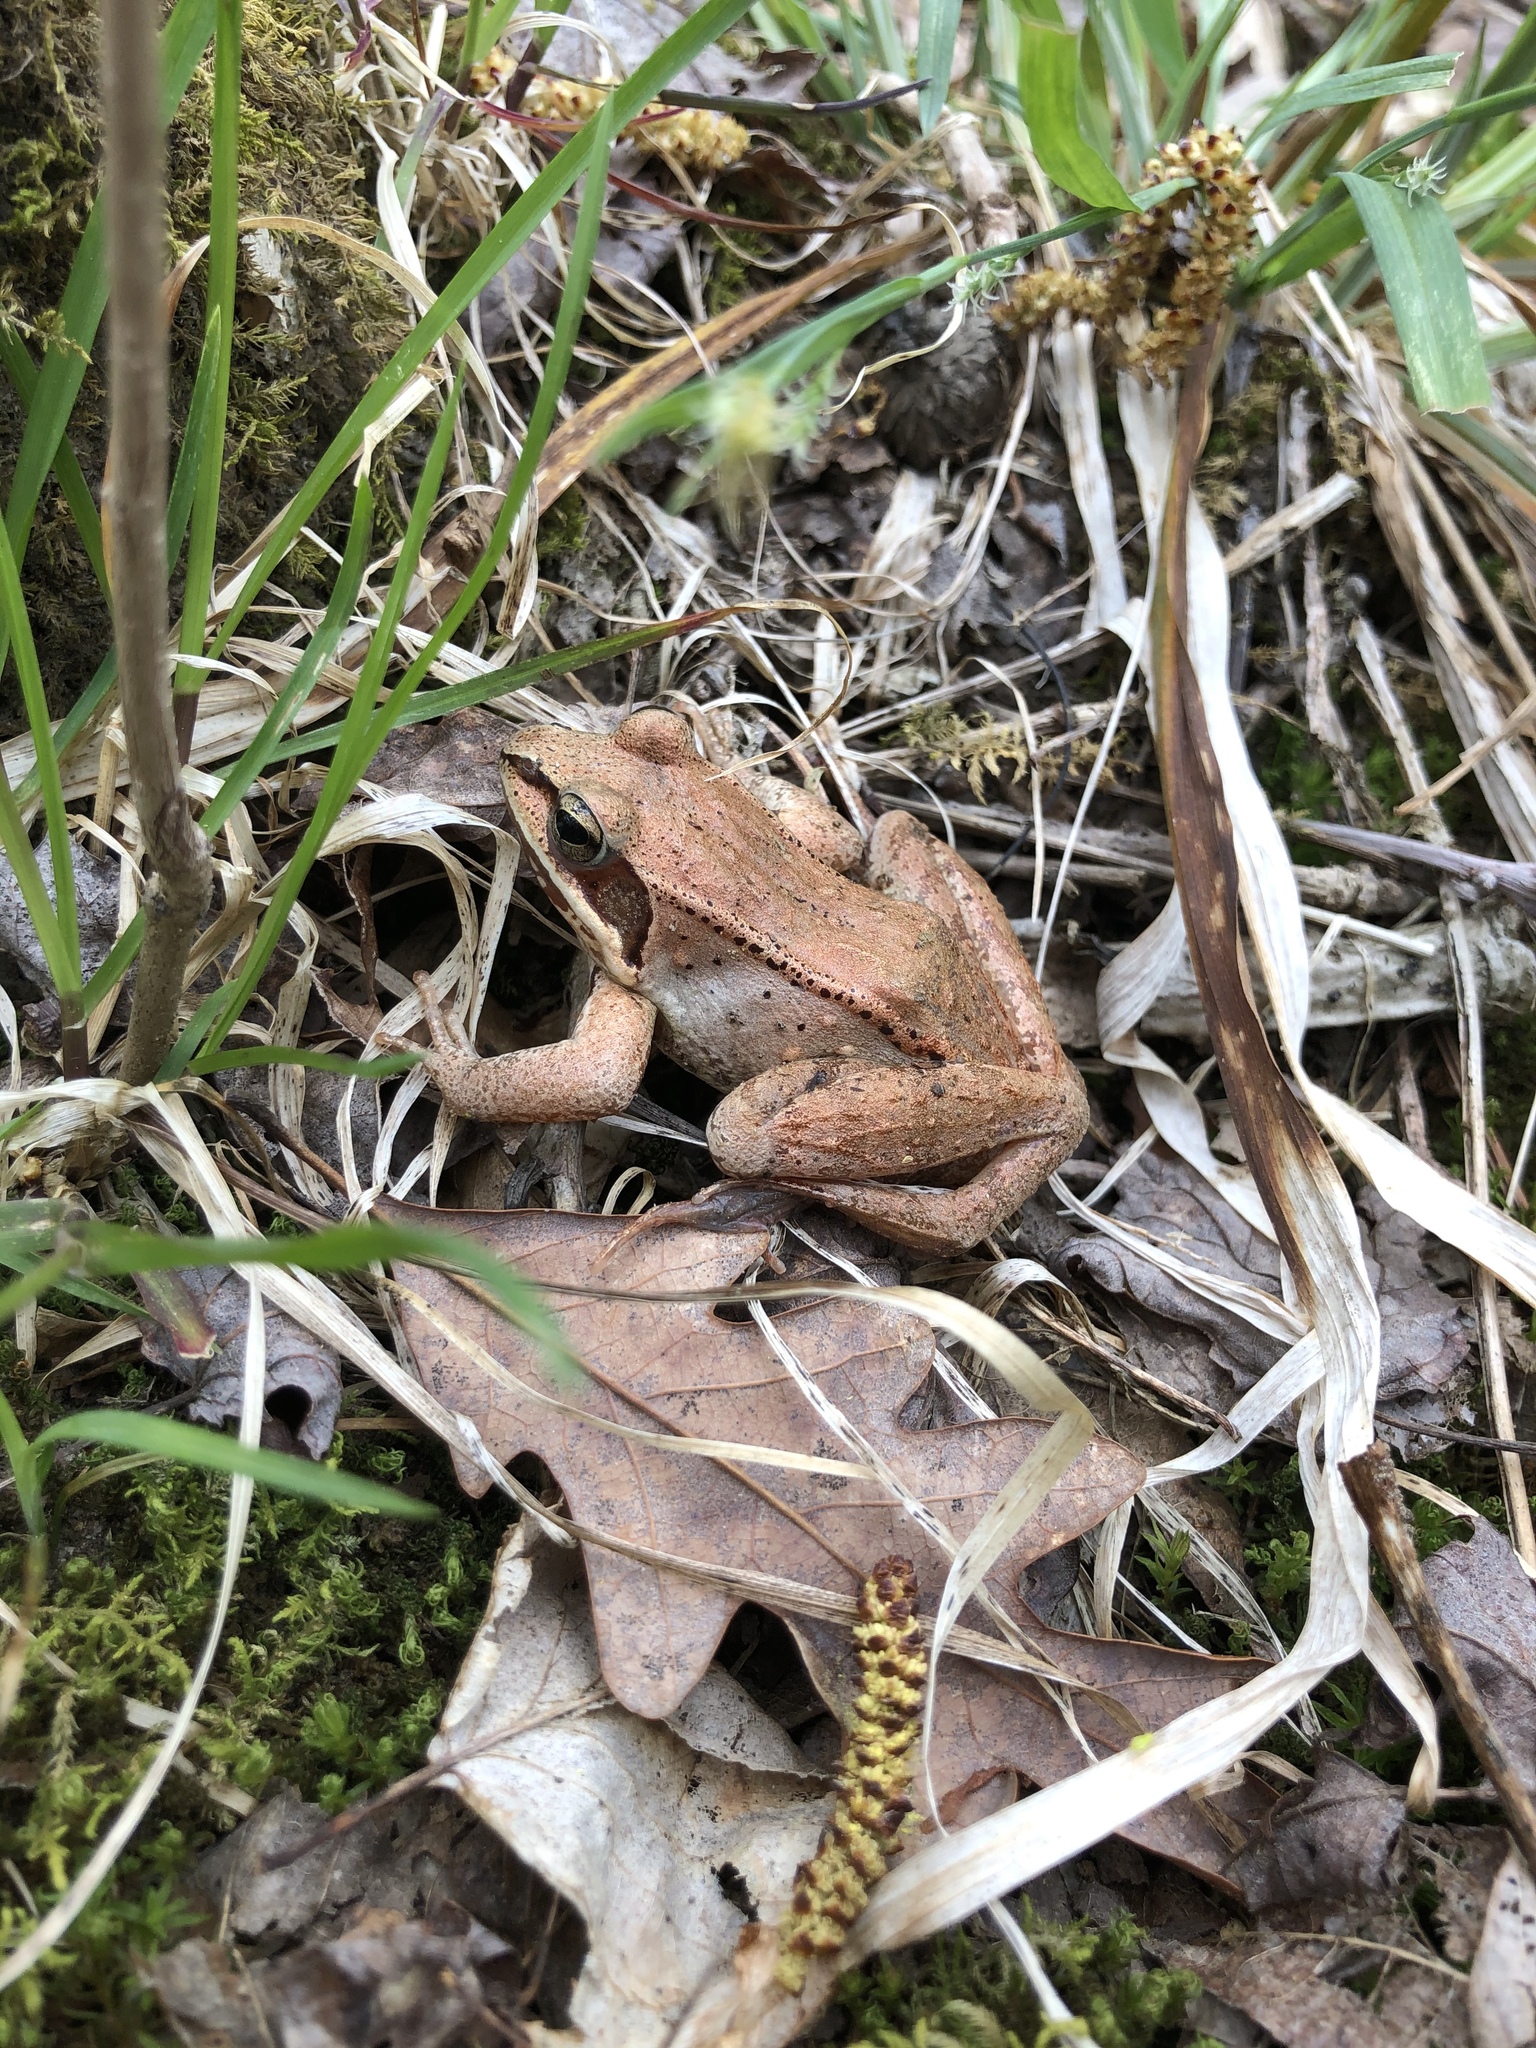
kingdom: Animalia
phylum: Chordata
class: Amphibia
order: Anura
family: Ranidae
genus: Lithobates
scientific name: Lithobates sylvaticus
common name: Wood frog
